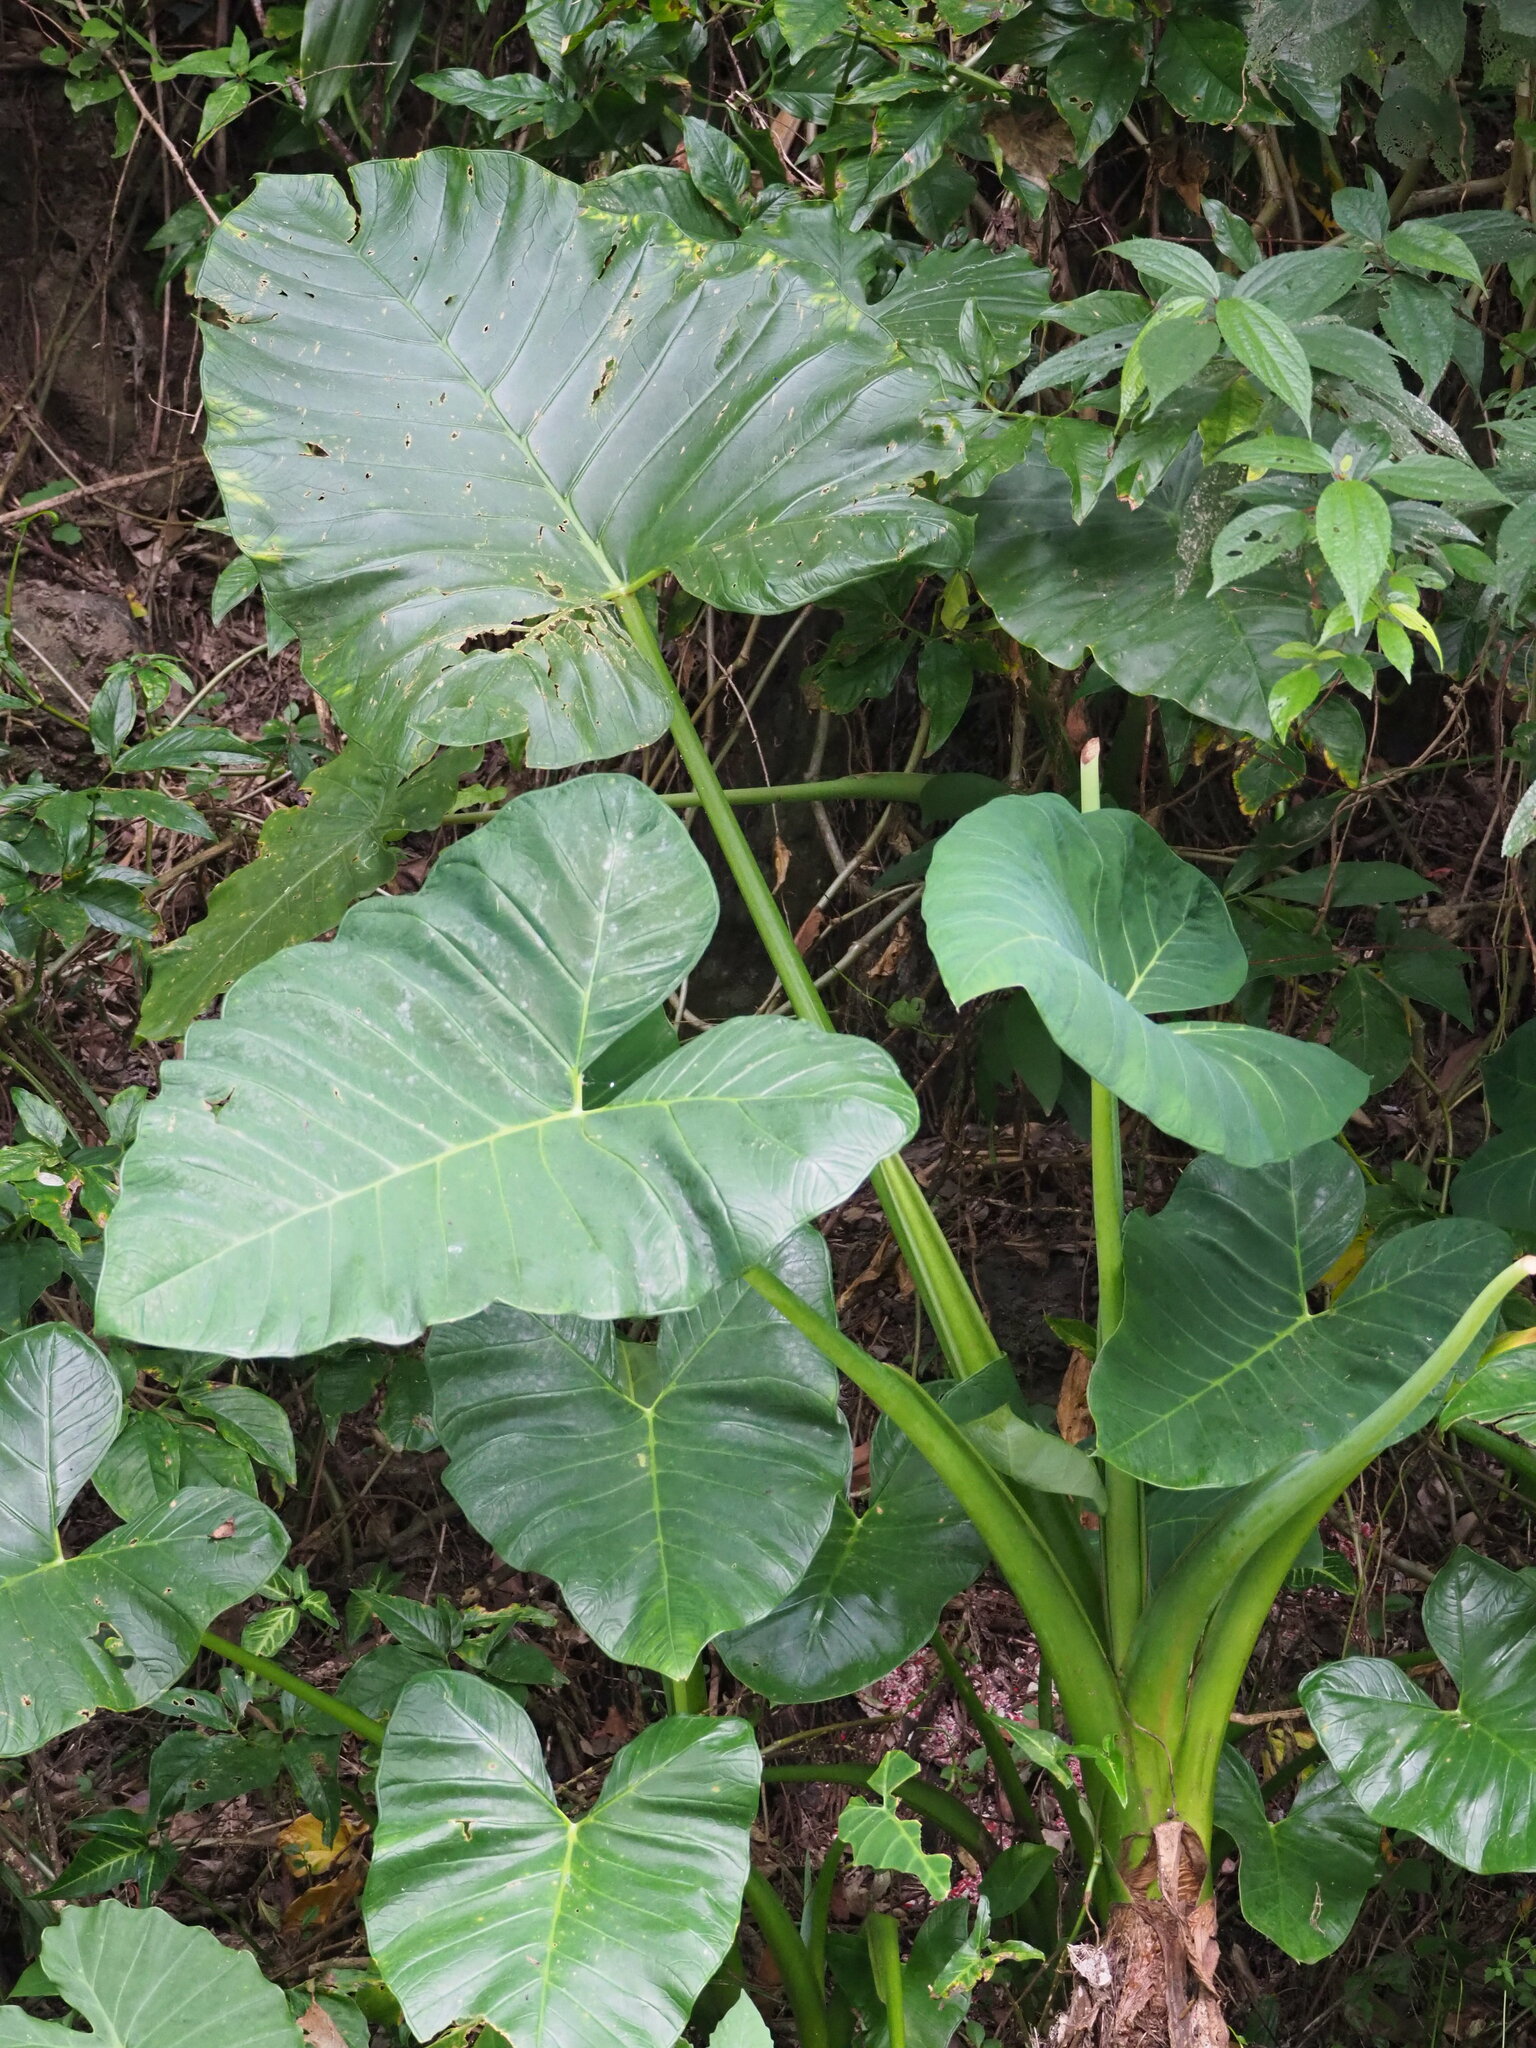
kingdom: Plantae
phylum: Tracheophyta
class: Liliopsida
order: Alismatales
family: Araceae
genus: Xanthosoma
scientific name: Xanthosoma sagittifolium
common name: Arrowleaf elephant's ear
